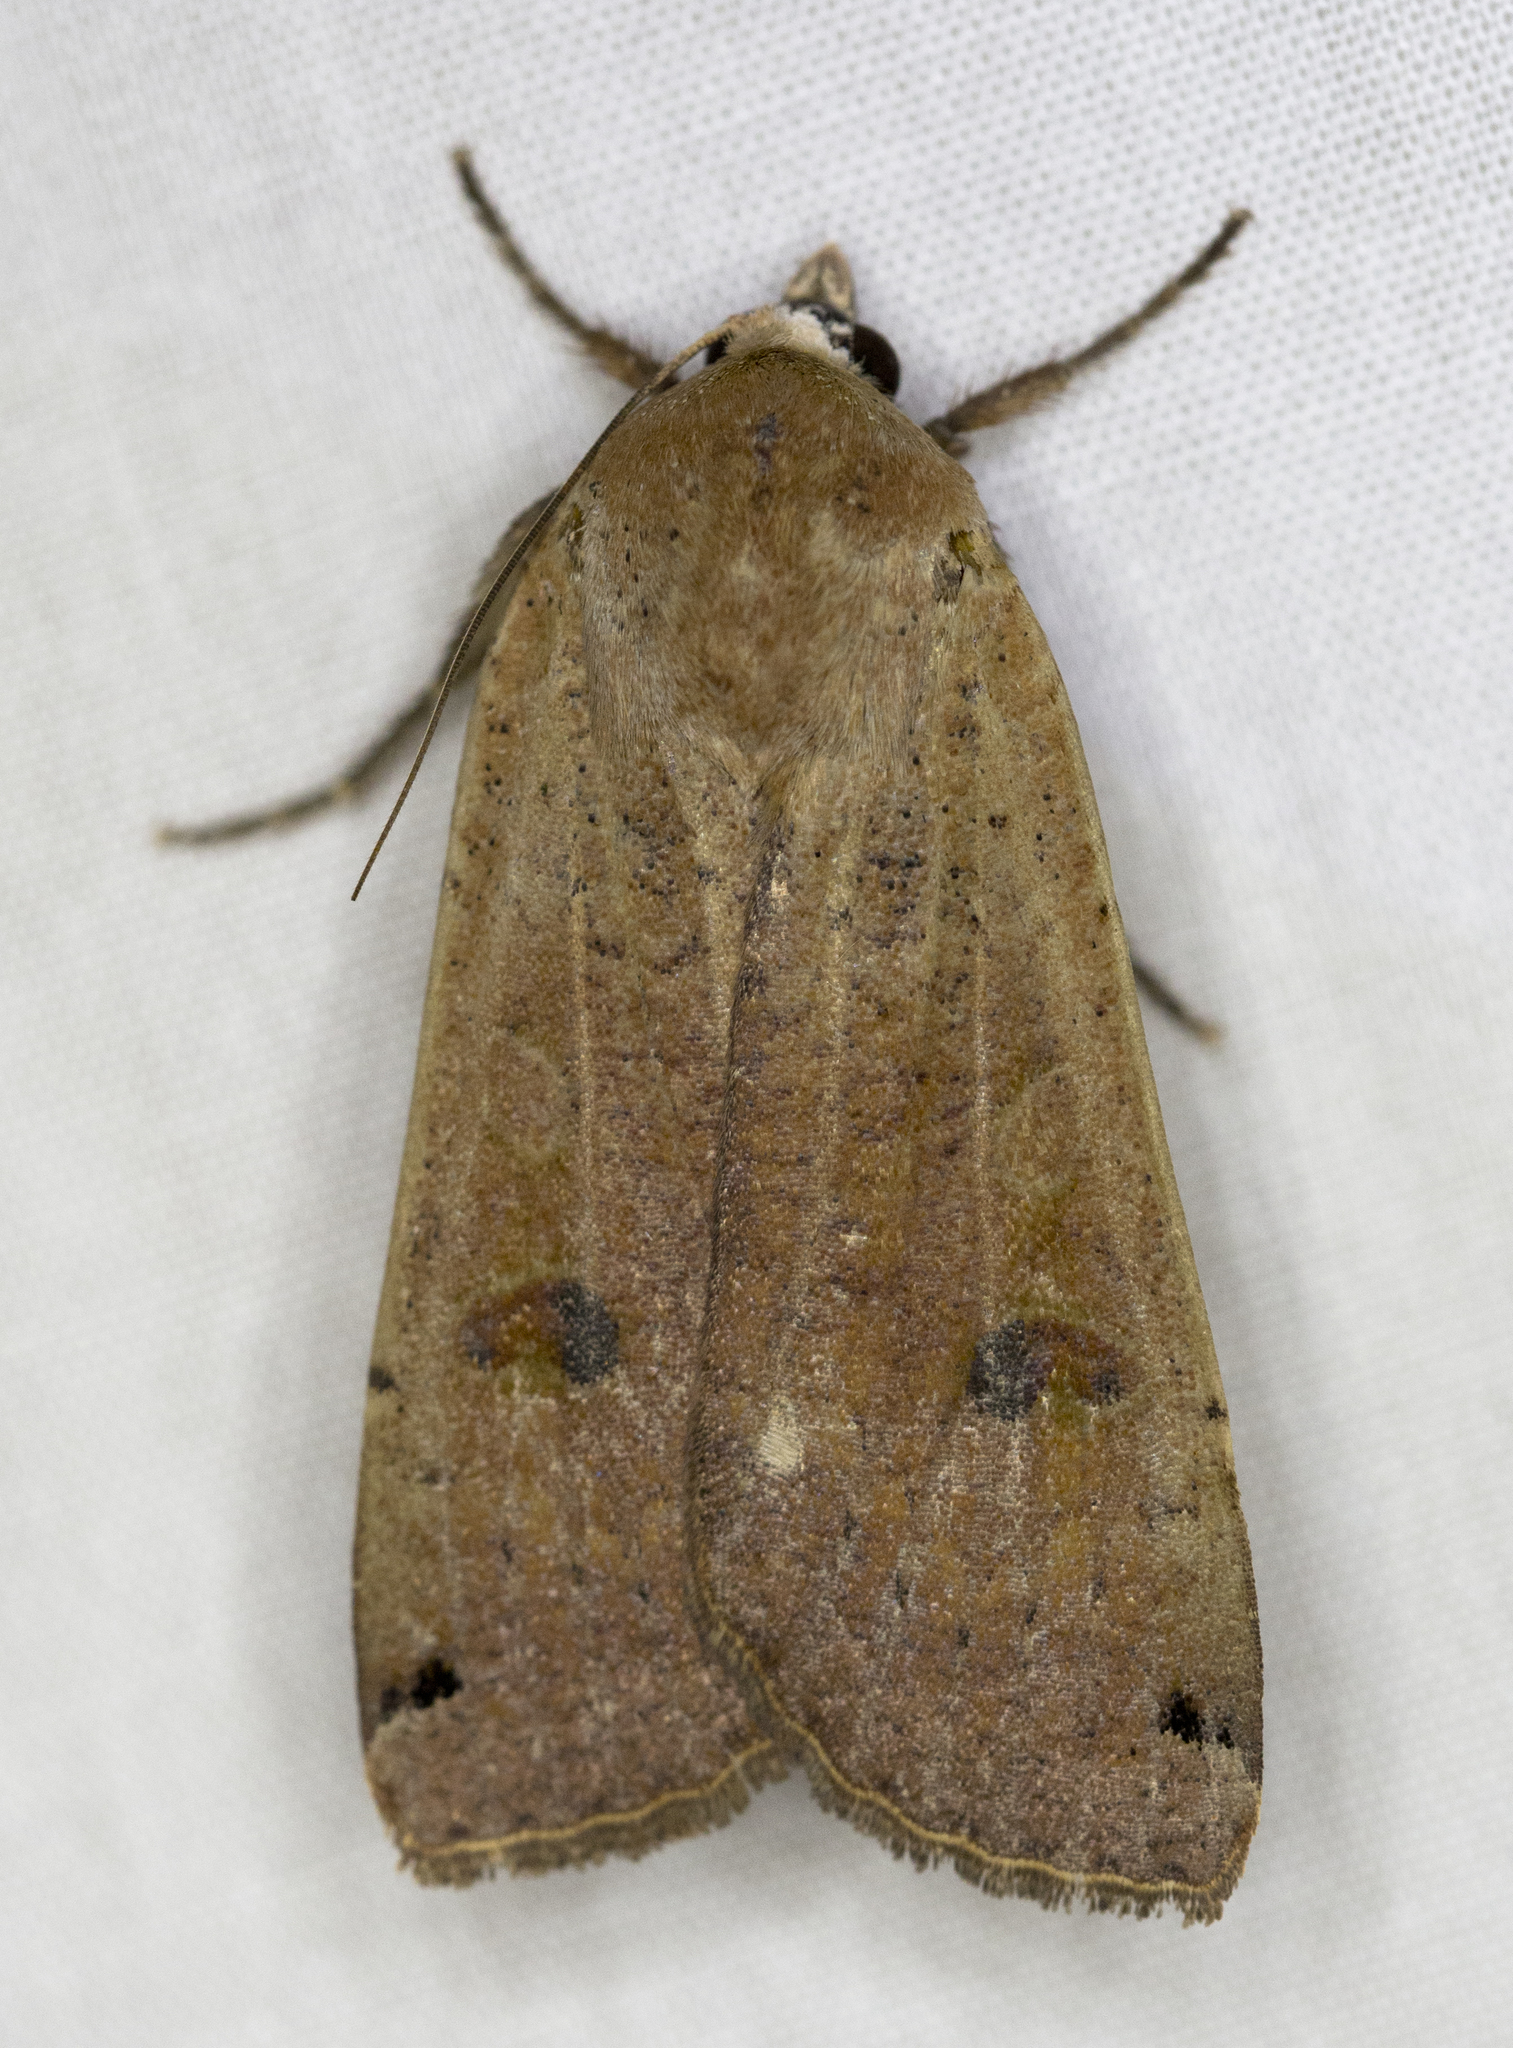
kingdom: Animalia
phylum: Arthropoda
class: Insecta
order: Lepidoptera
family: Noctuidae
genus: Noctua
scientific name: Noctua pronuba
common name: Large yellow underwing
